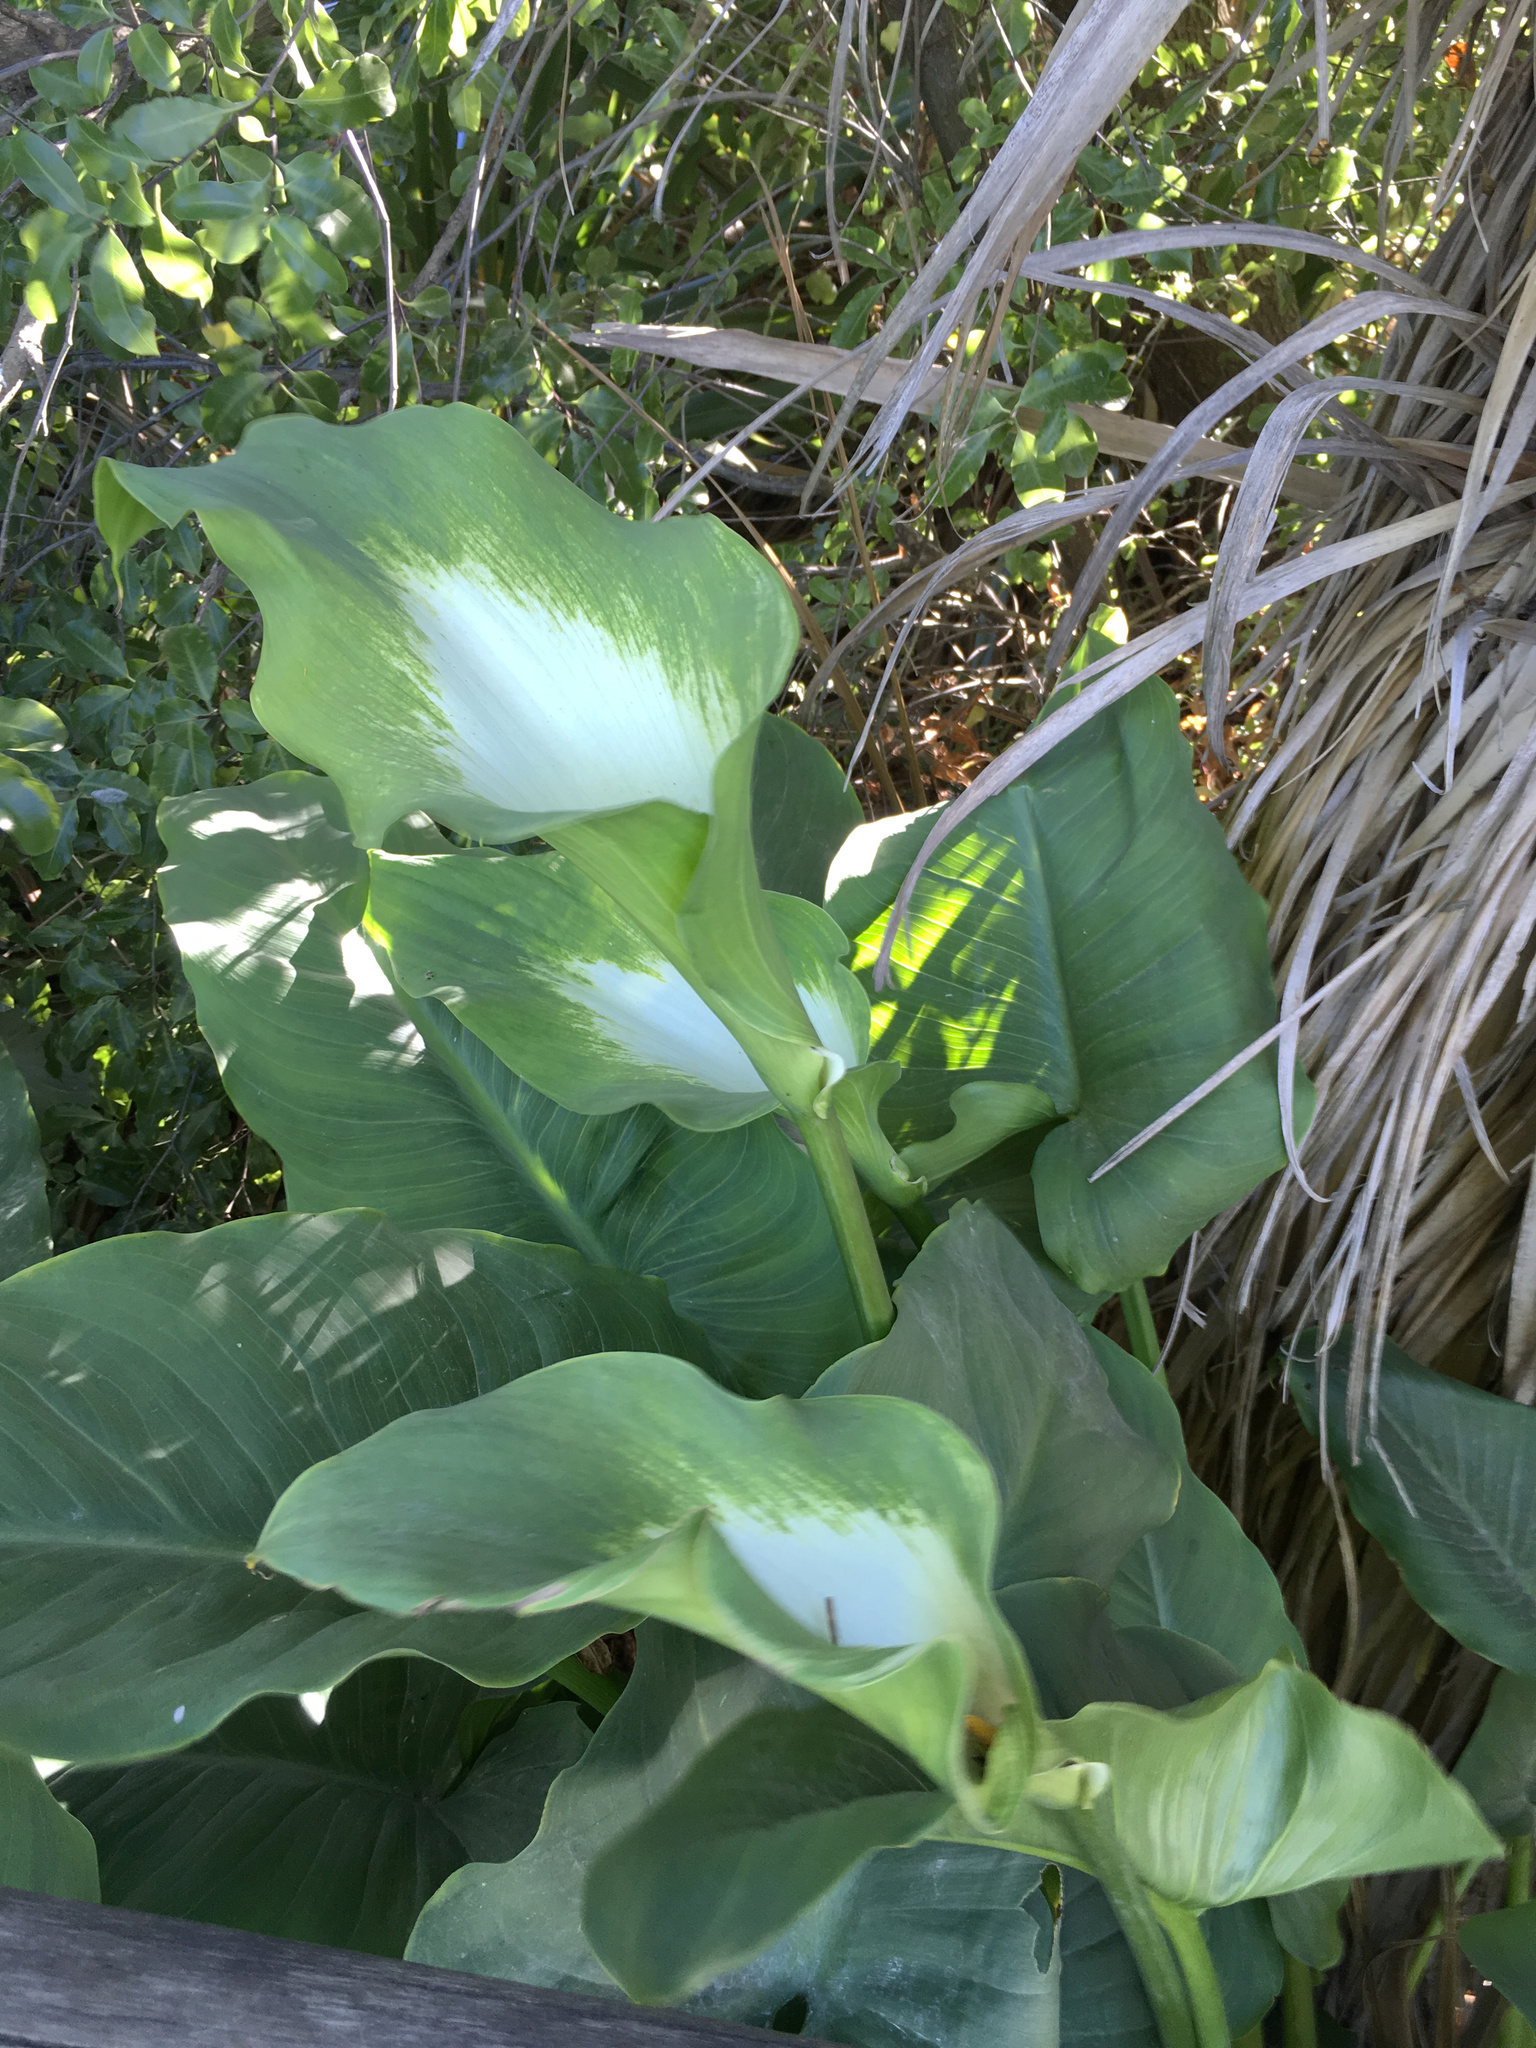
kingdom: Plantae
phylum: Tracheophyta
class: Liliopsida
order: Alismatales
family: Araceae
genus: Zantedeschia
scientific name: Zantedeschia aethiopica
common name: Altar-lily
